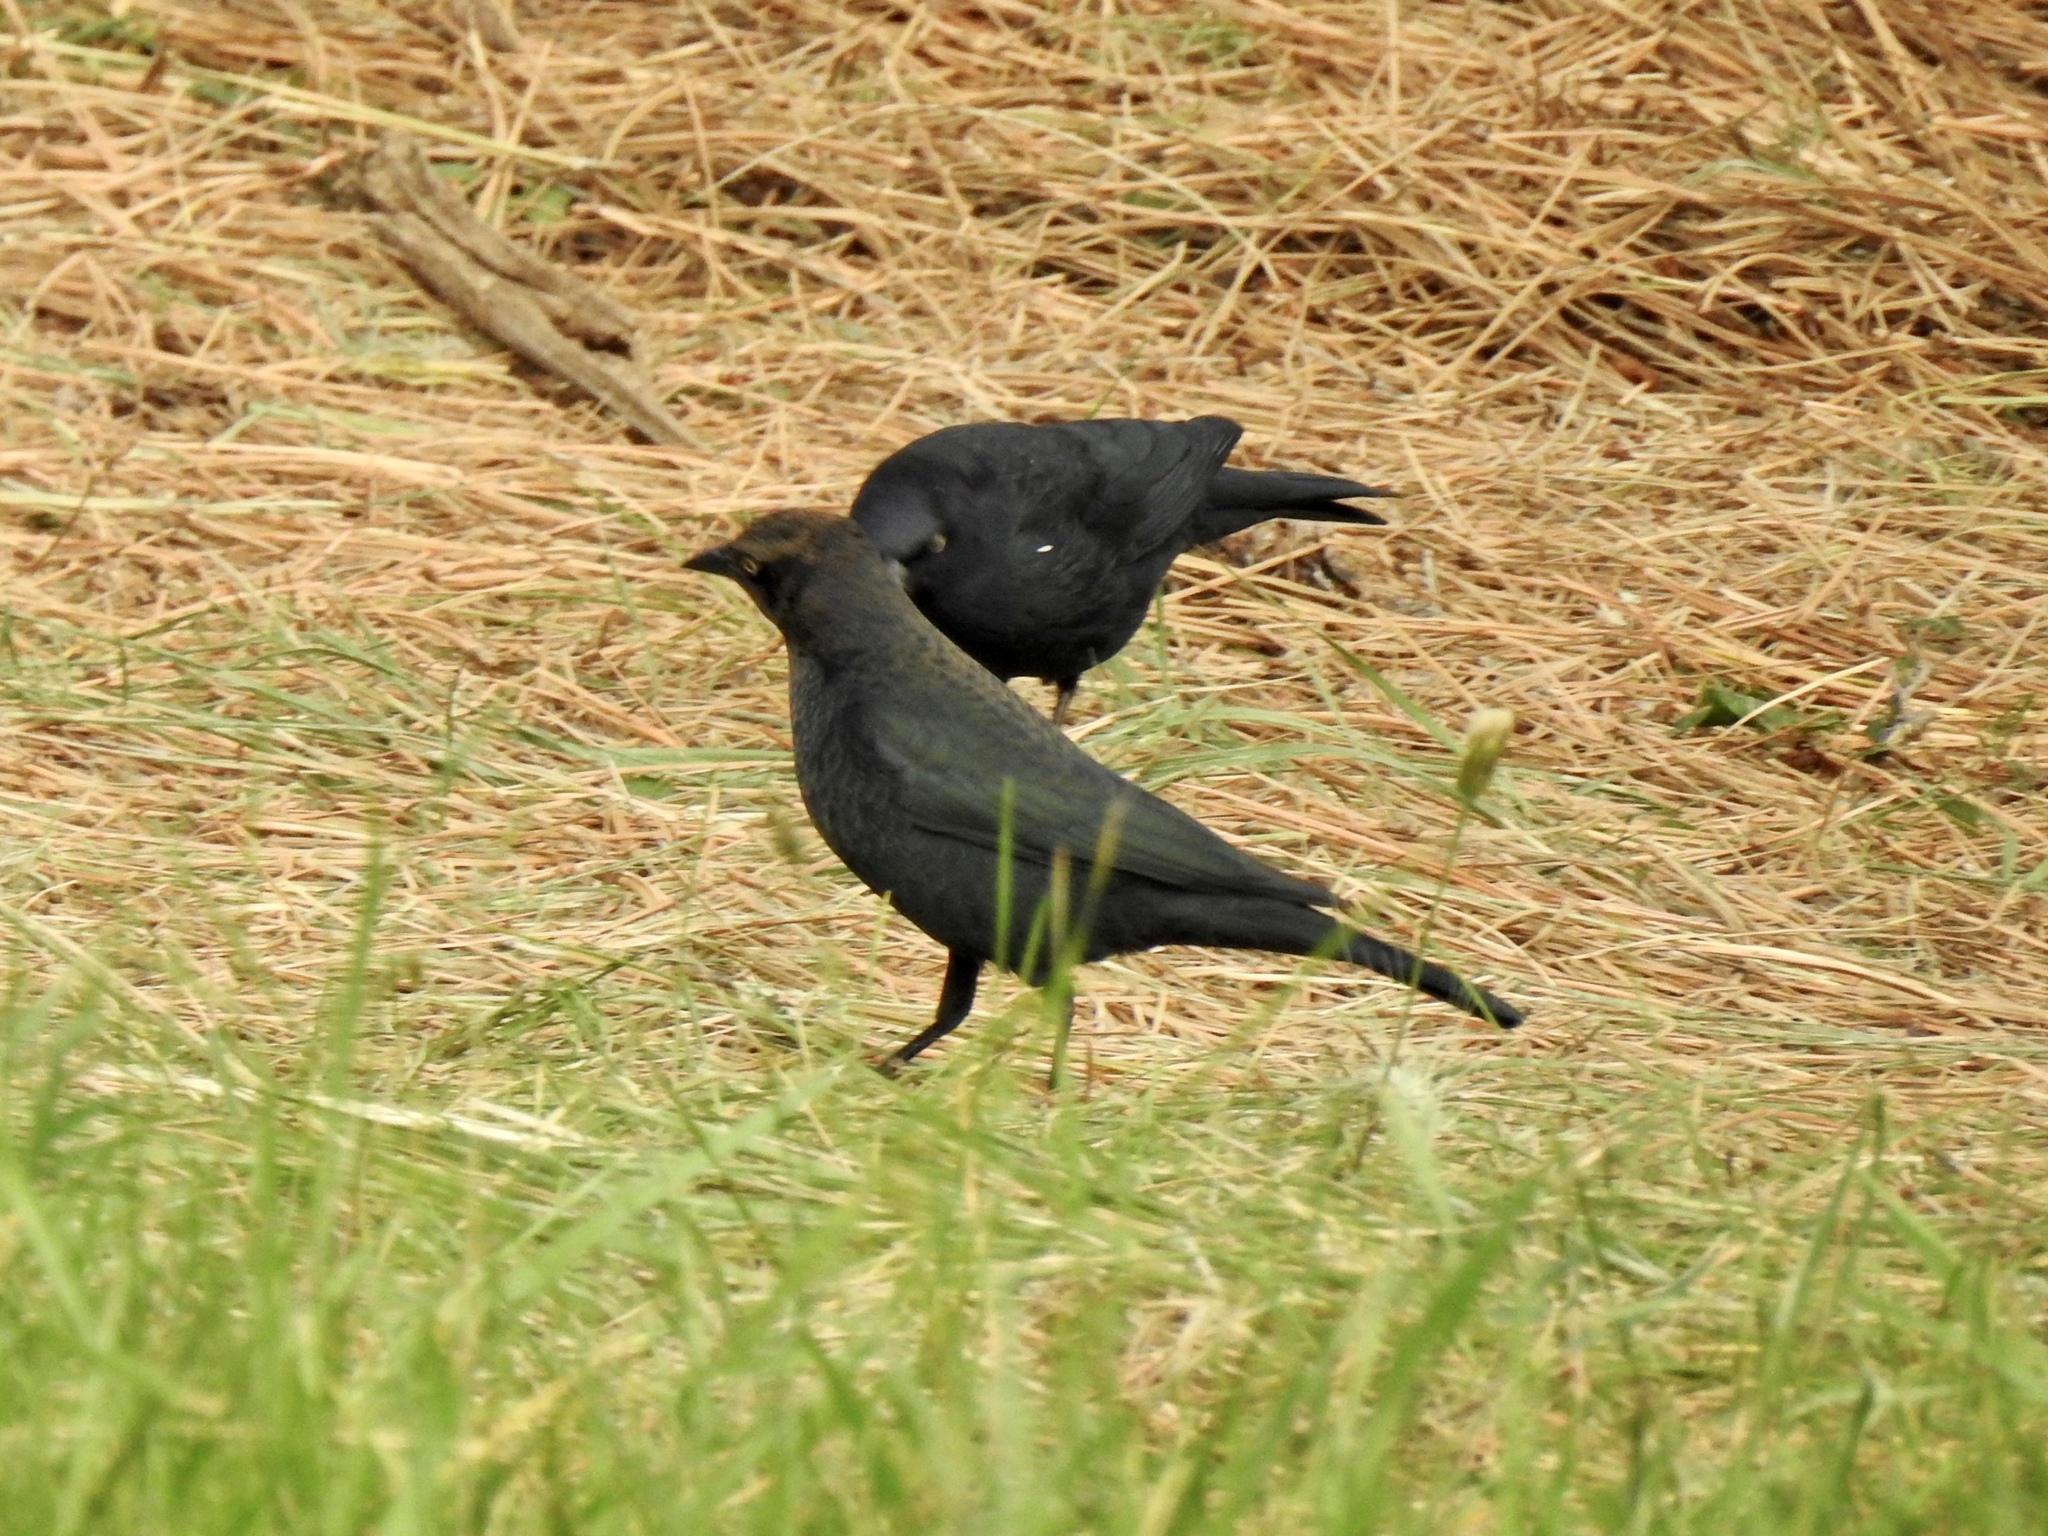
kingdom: Animalia
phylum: Chordata
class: Aves
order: Passeriformes
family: Icteridae
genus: Euphagus
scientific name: Euphagus cyanocephalus
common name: Brewer's blackbird
